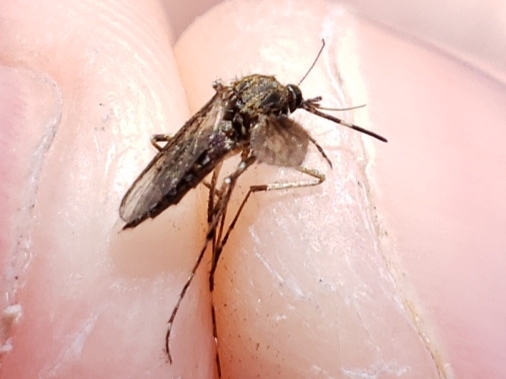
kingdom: Animalia
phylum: Arthropoda
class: Insecta
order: Diptera
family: Culicidae
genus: Aedes
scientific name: Aedes sollicitans
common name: Saltmarsh mosquito
